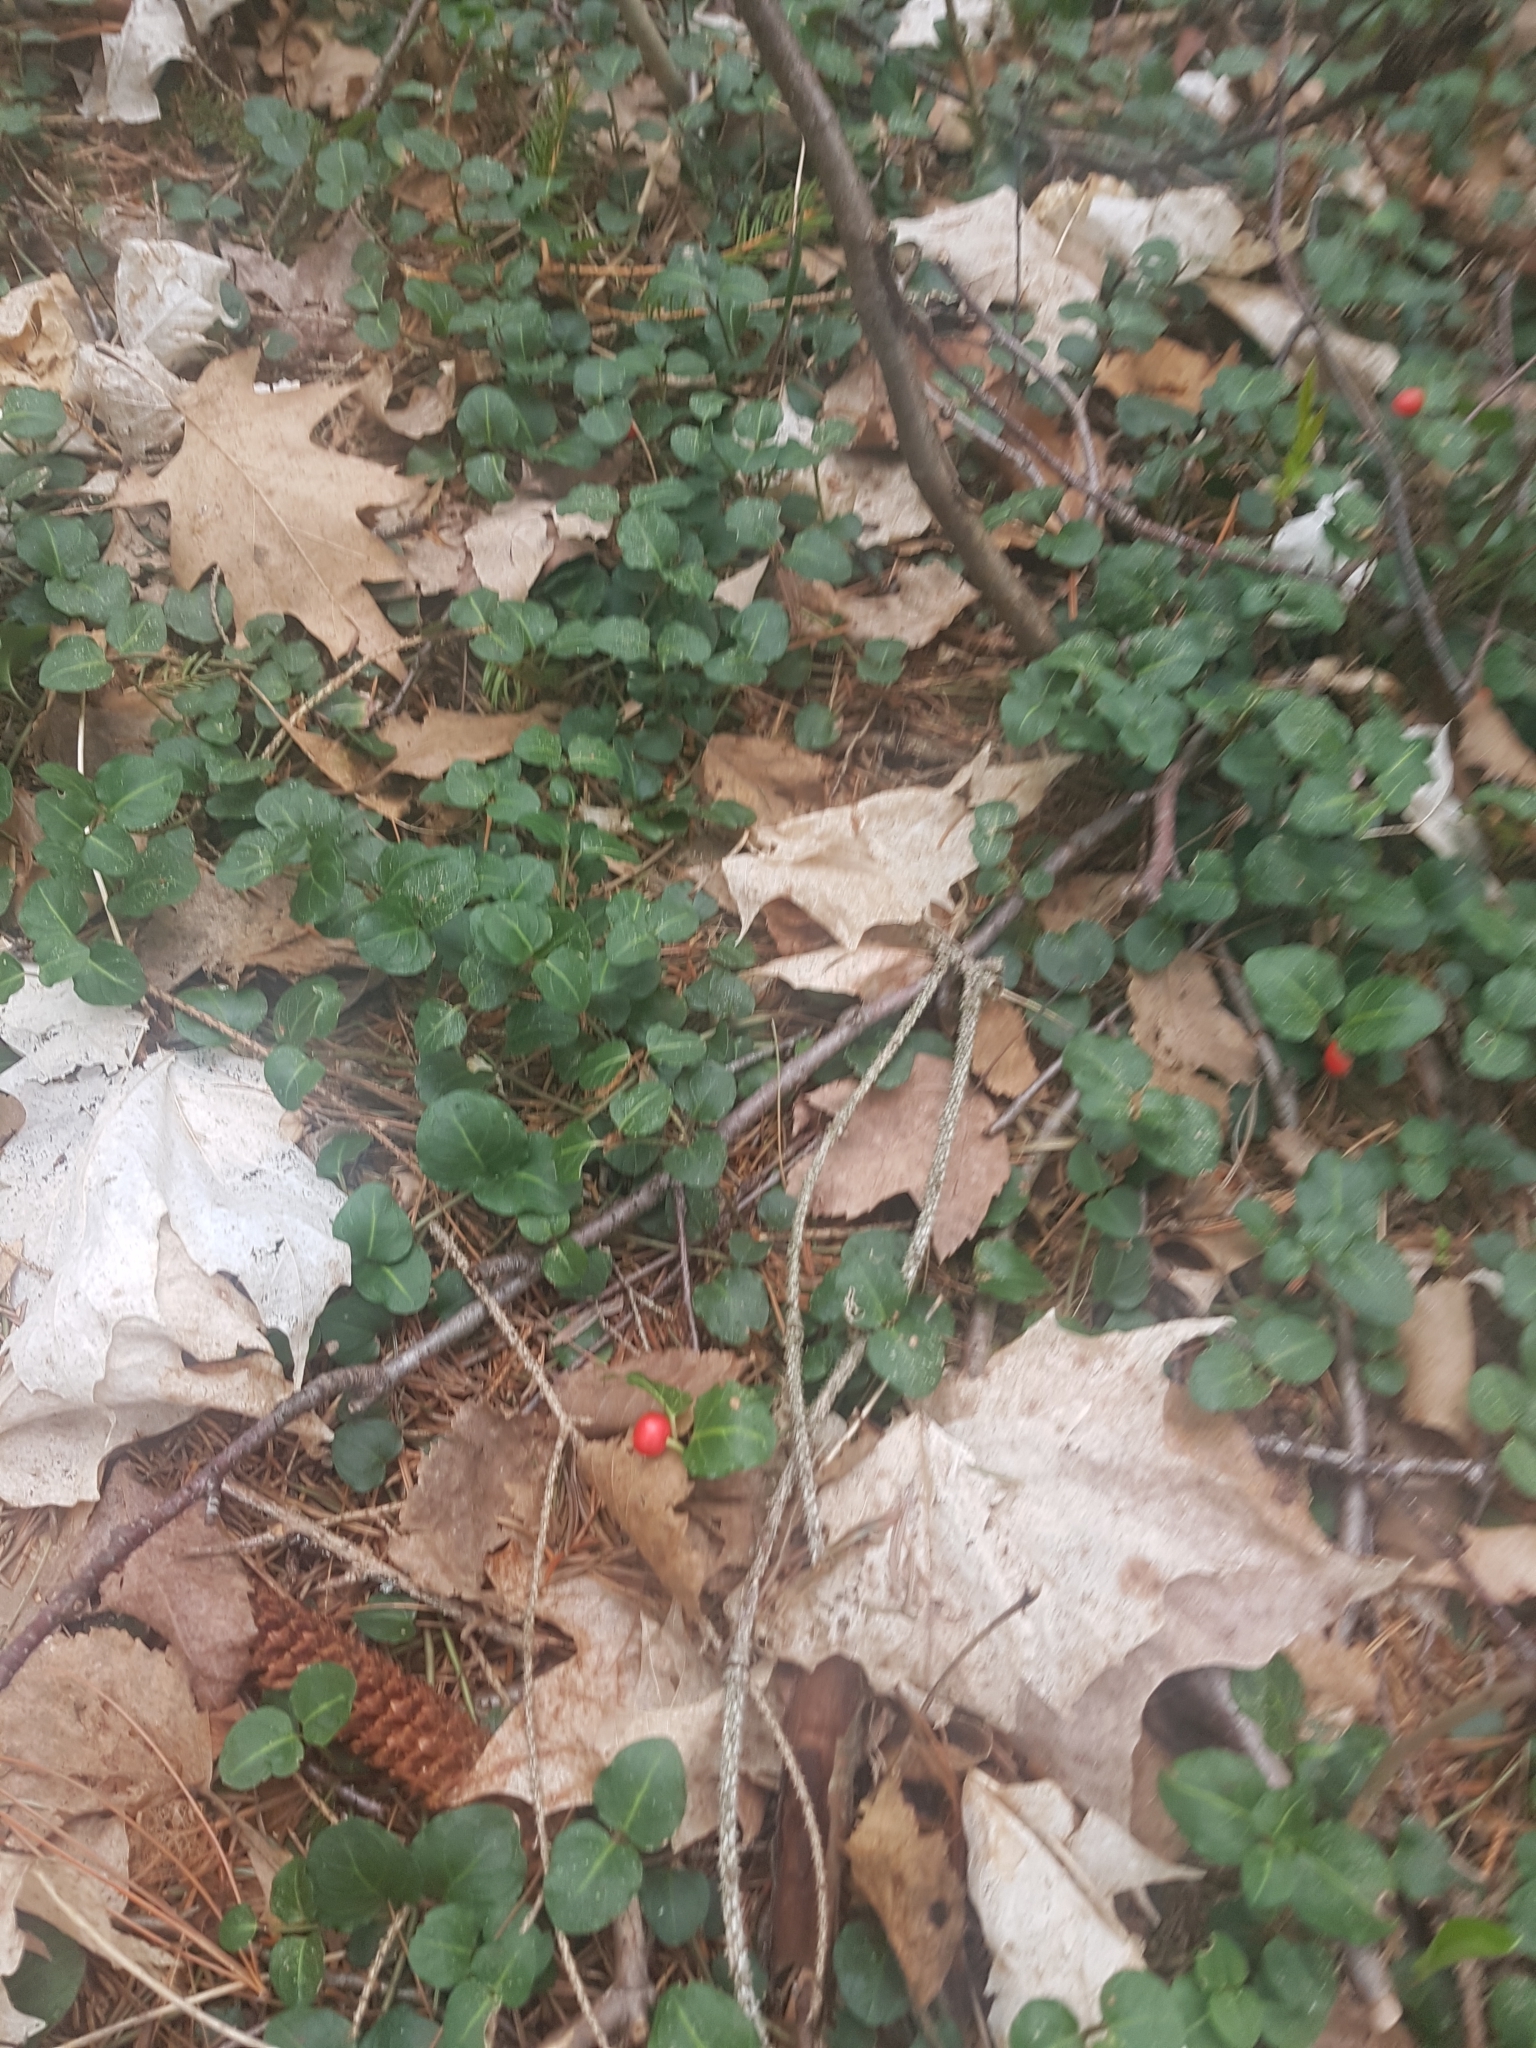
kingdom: Plantae
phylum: Tracheophyta
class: Magnoliopsida
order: Gentianales
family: Rubiaceae
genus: Mitchella
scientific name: Mitchella repens
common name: Partridge-berry
